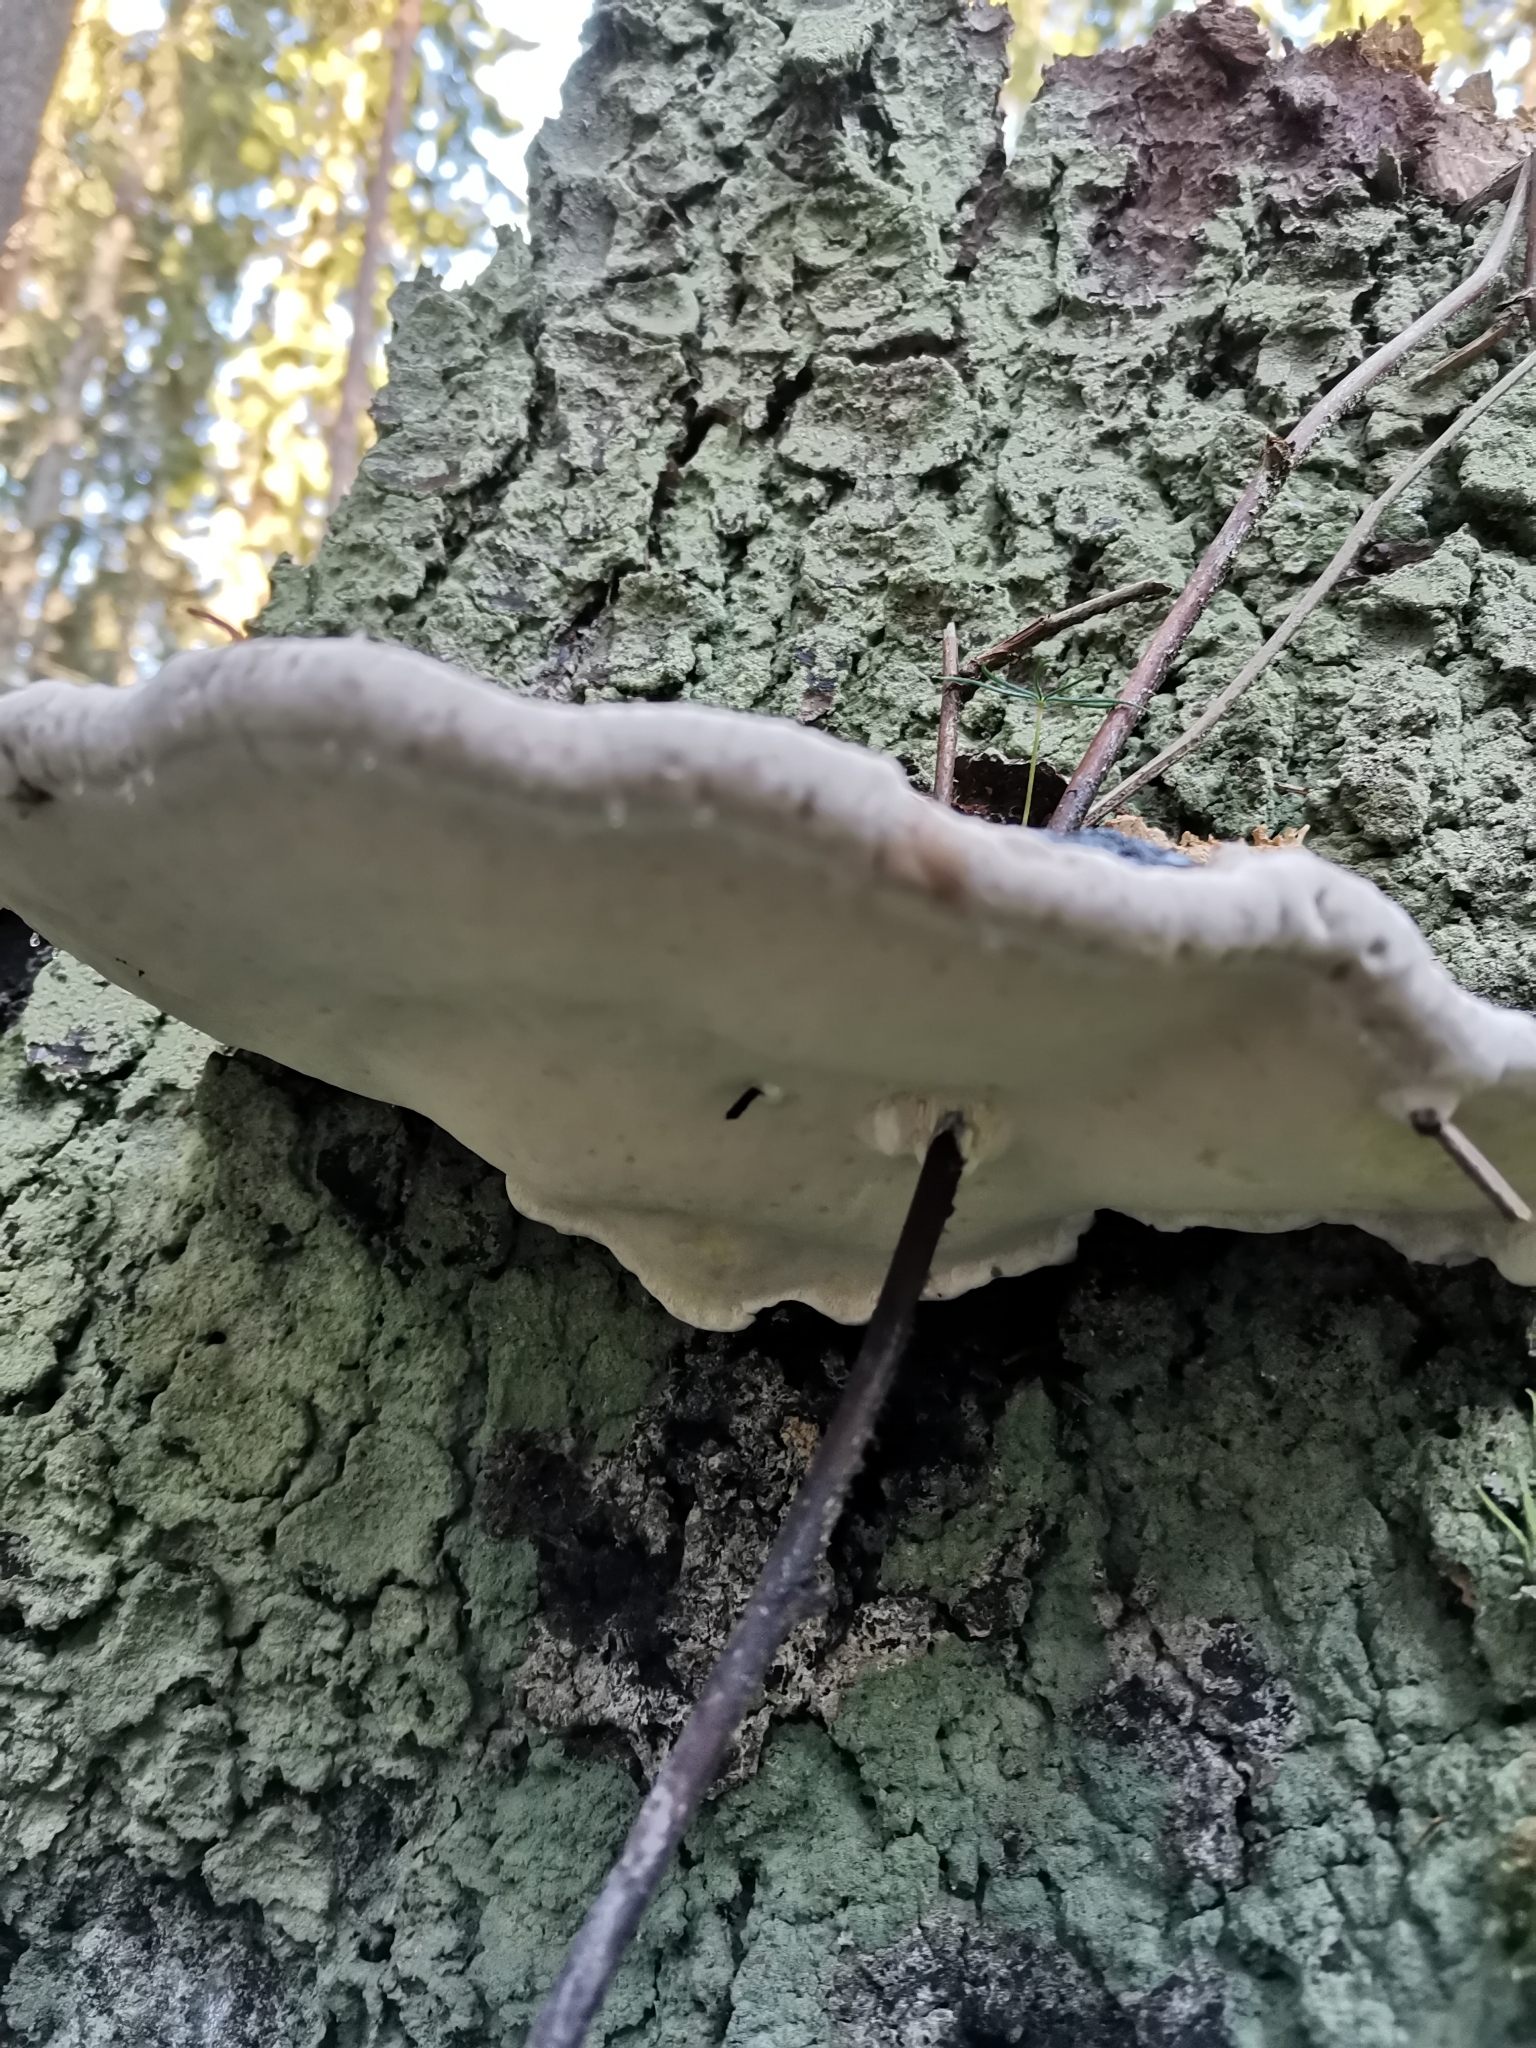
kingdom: Fungi
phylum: Basidiomycota
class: Agaricomycetes
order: Polyporales
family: Fomitopsidaceae
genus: Fomitopsis
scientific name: Fomitopsis pinicola
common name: Red-belted bracket
